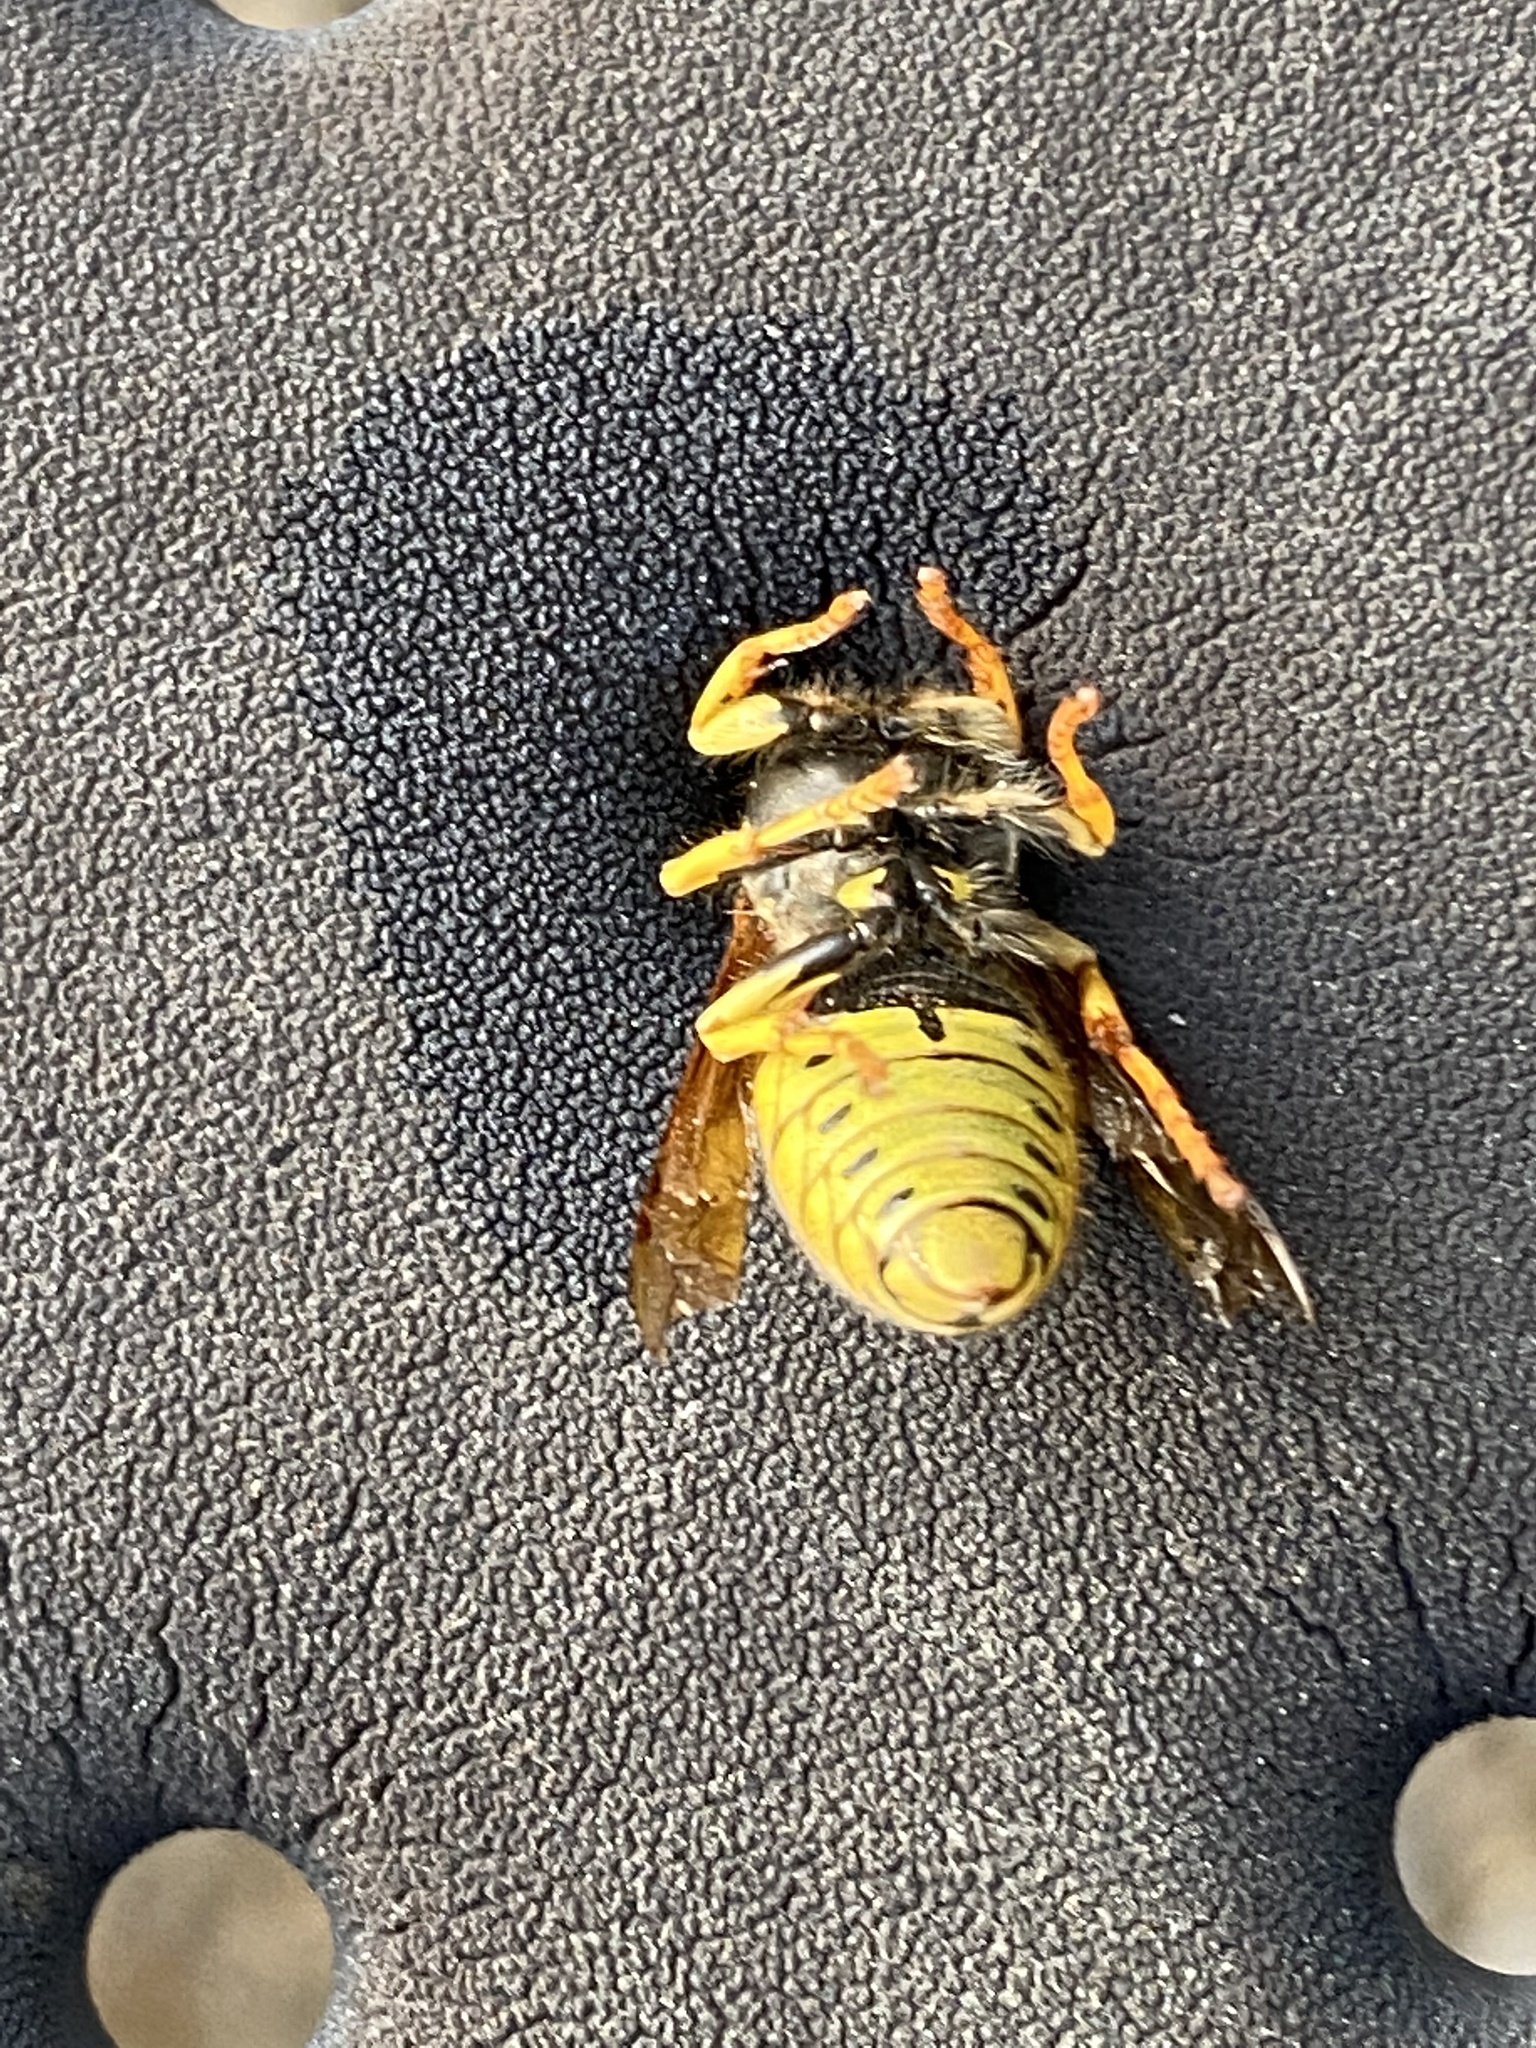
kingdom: Animalia
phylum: Arthropoda
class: Insecta
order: Hymenoptera
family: Vespidae
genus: Vespula
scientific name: Vespula
